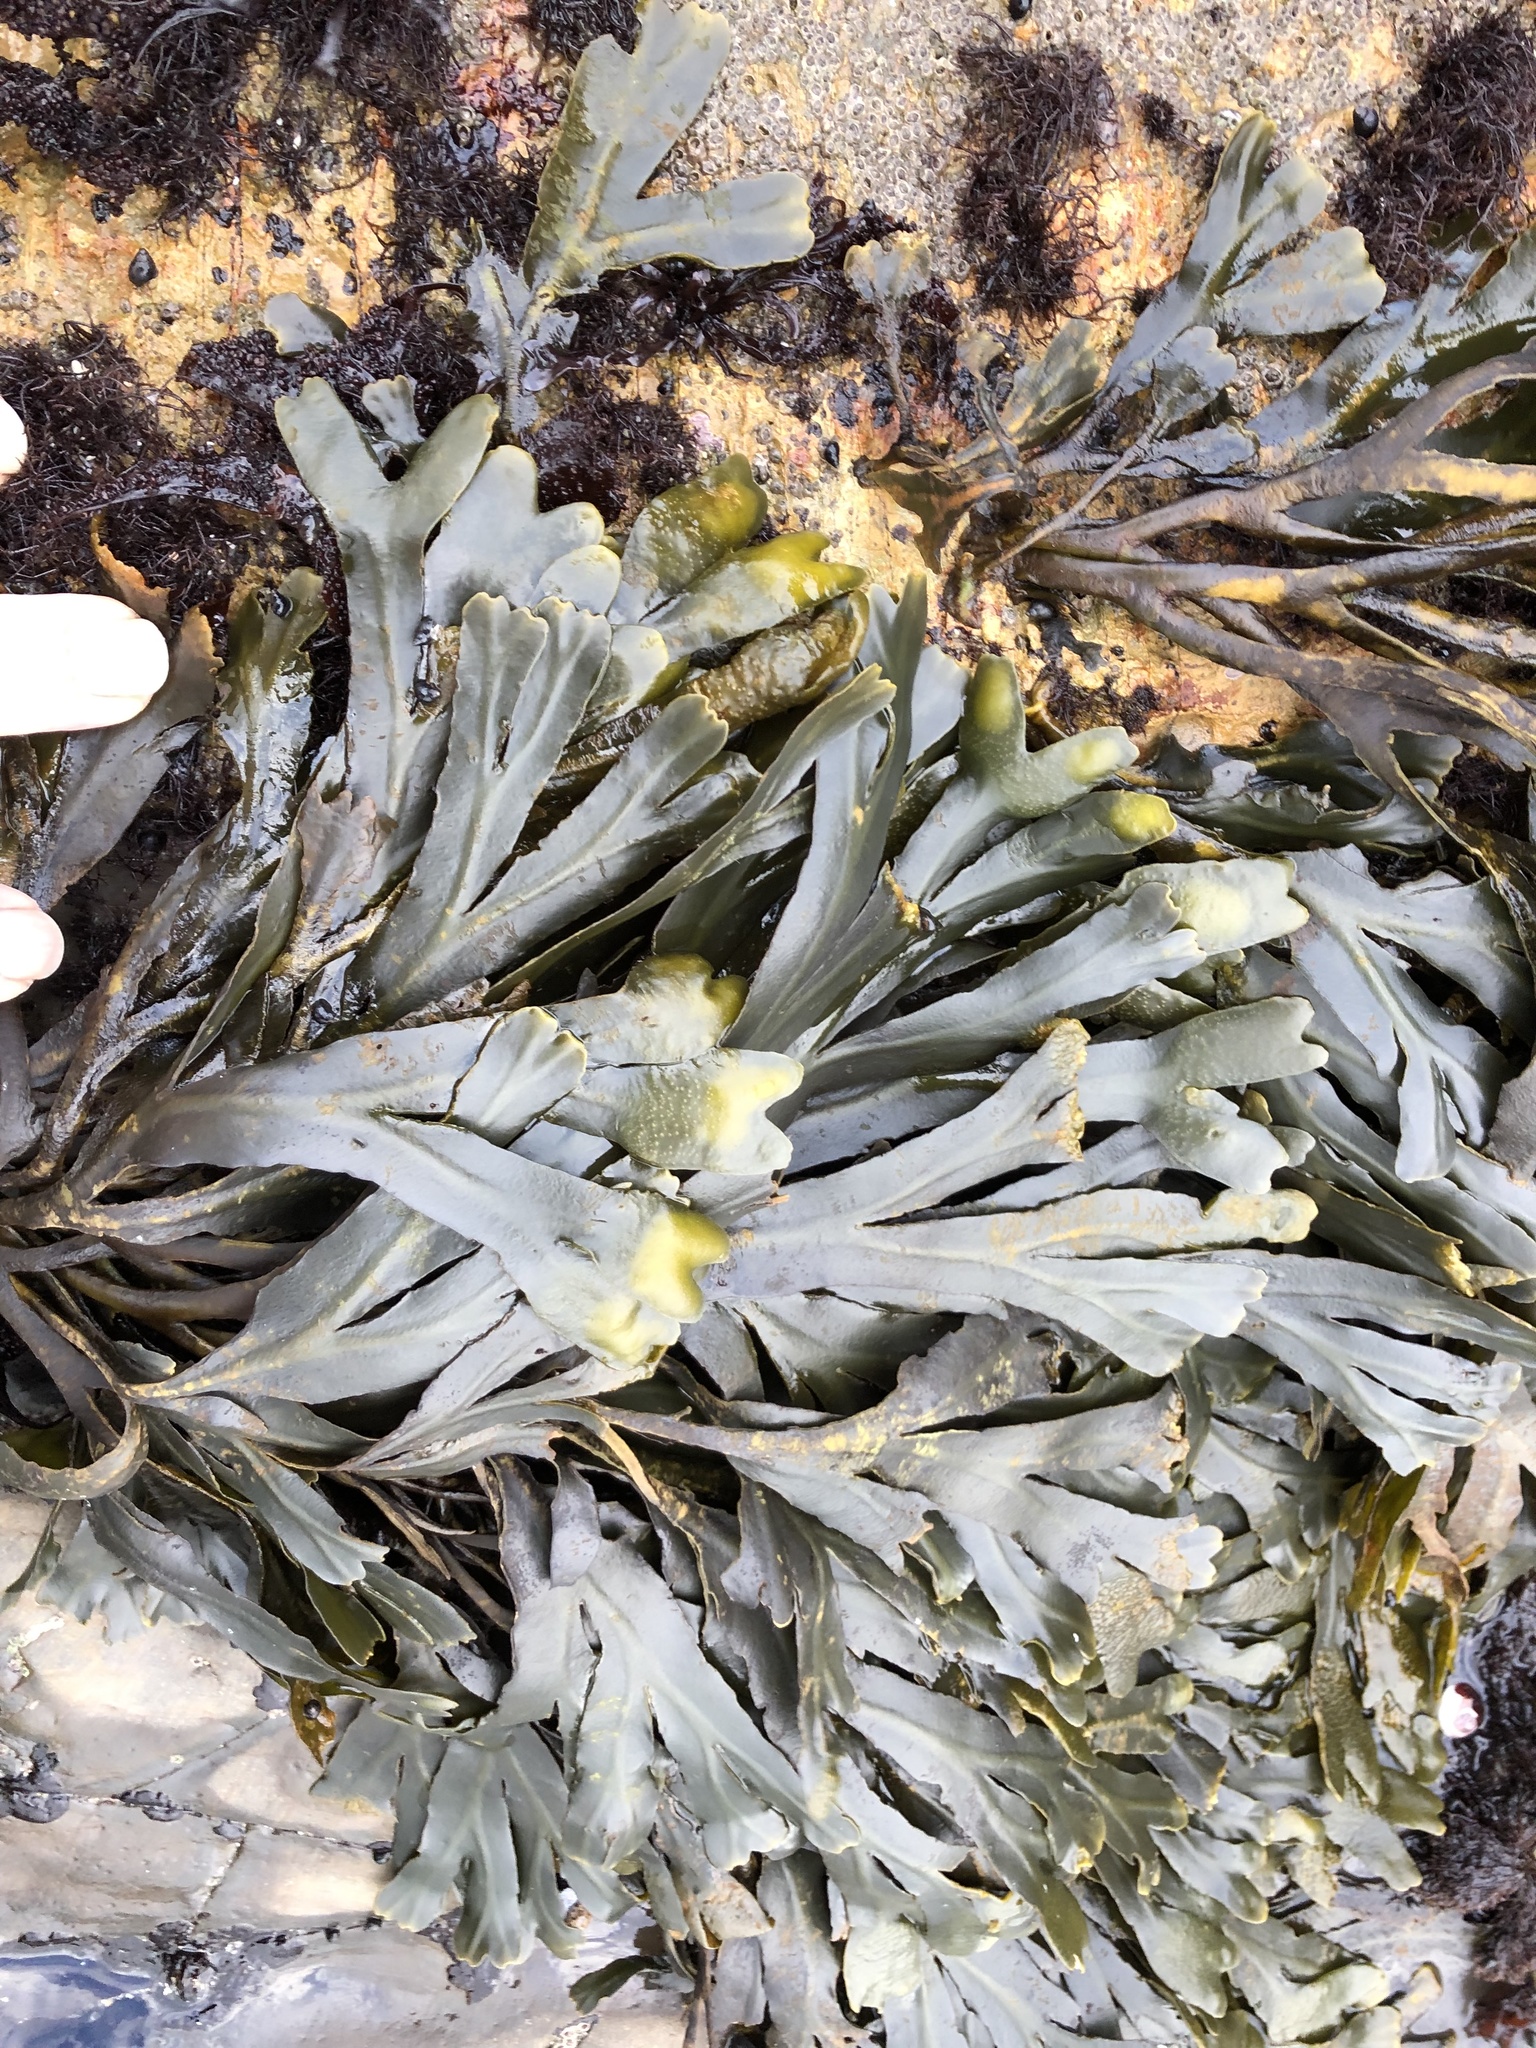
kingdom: Chromista
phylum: Ochrophyta
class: Phaeophyceae
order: Fucales
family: Fucaceae
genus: Fucus
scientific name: Fucus distichus
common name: Rockweed
